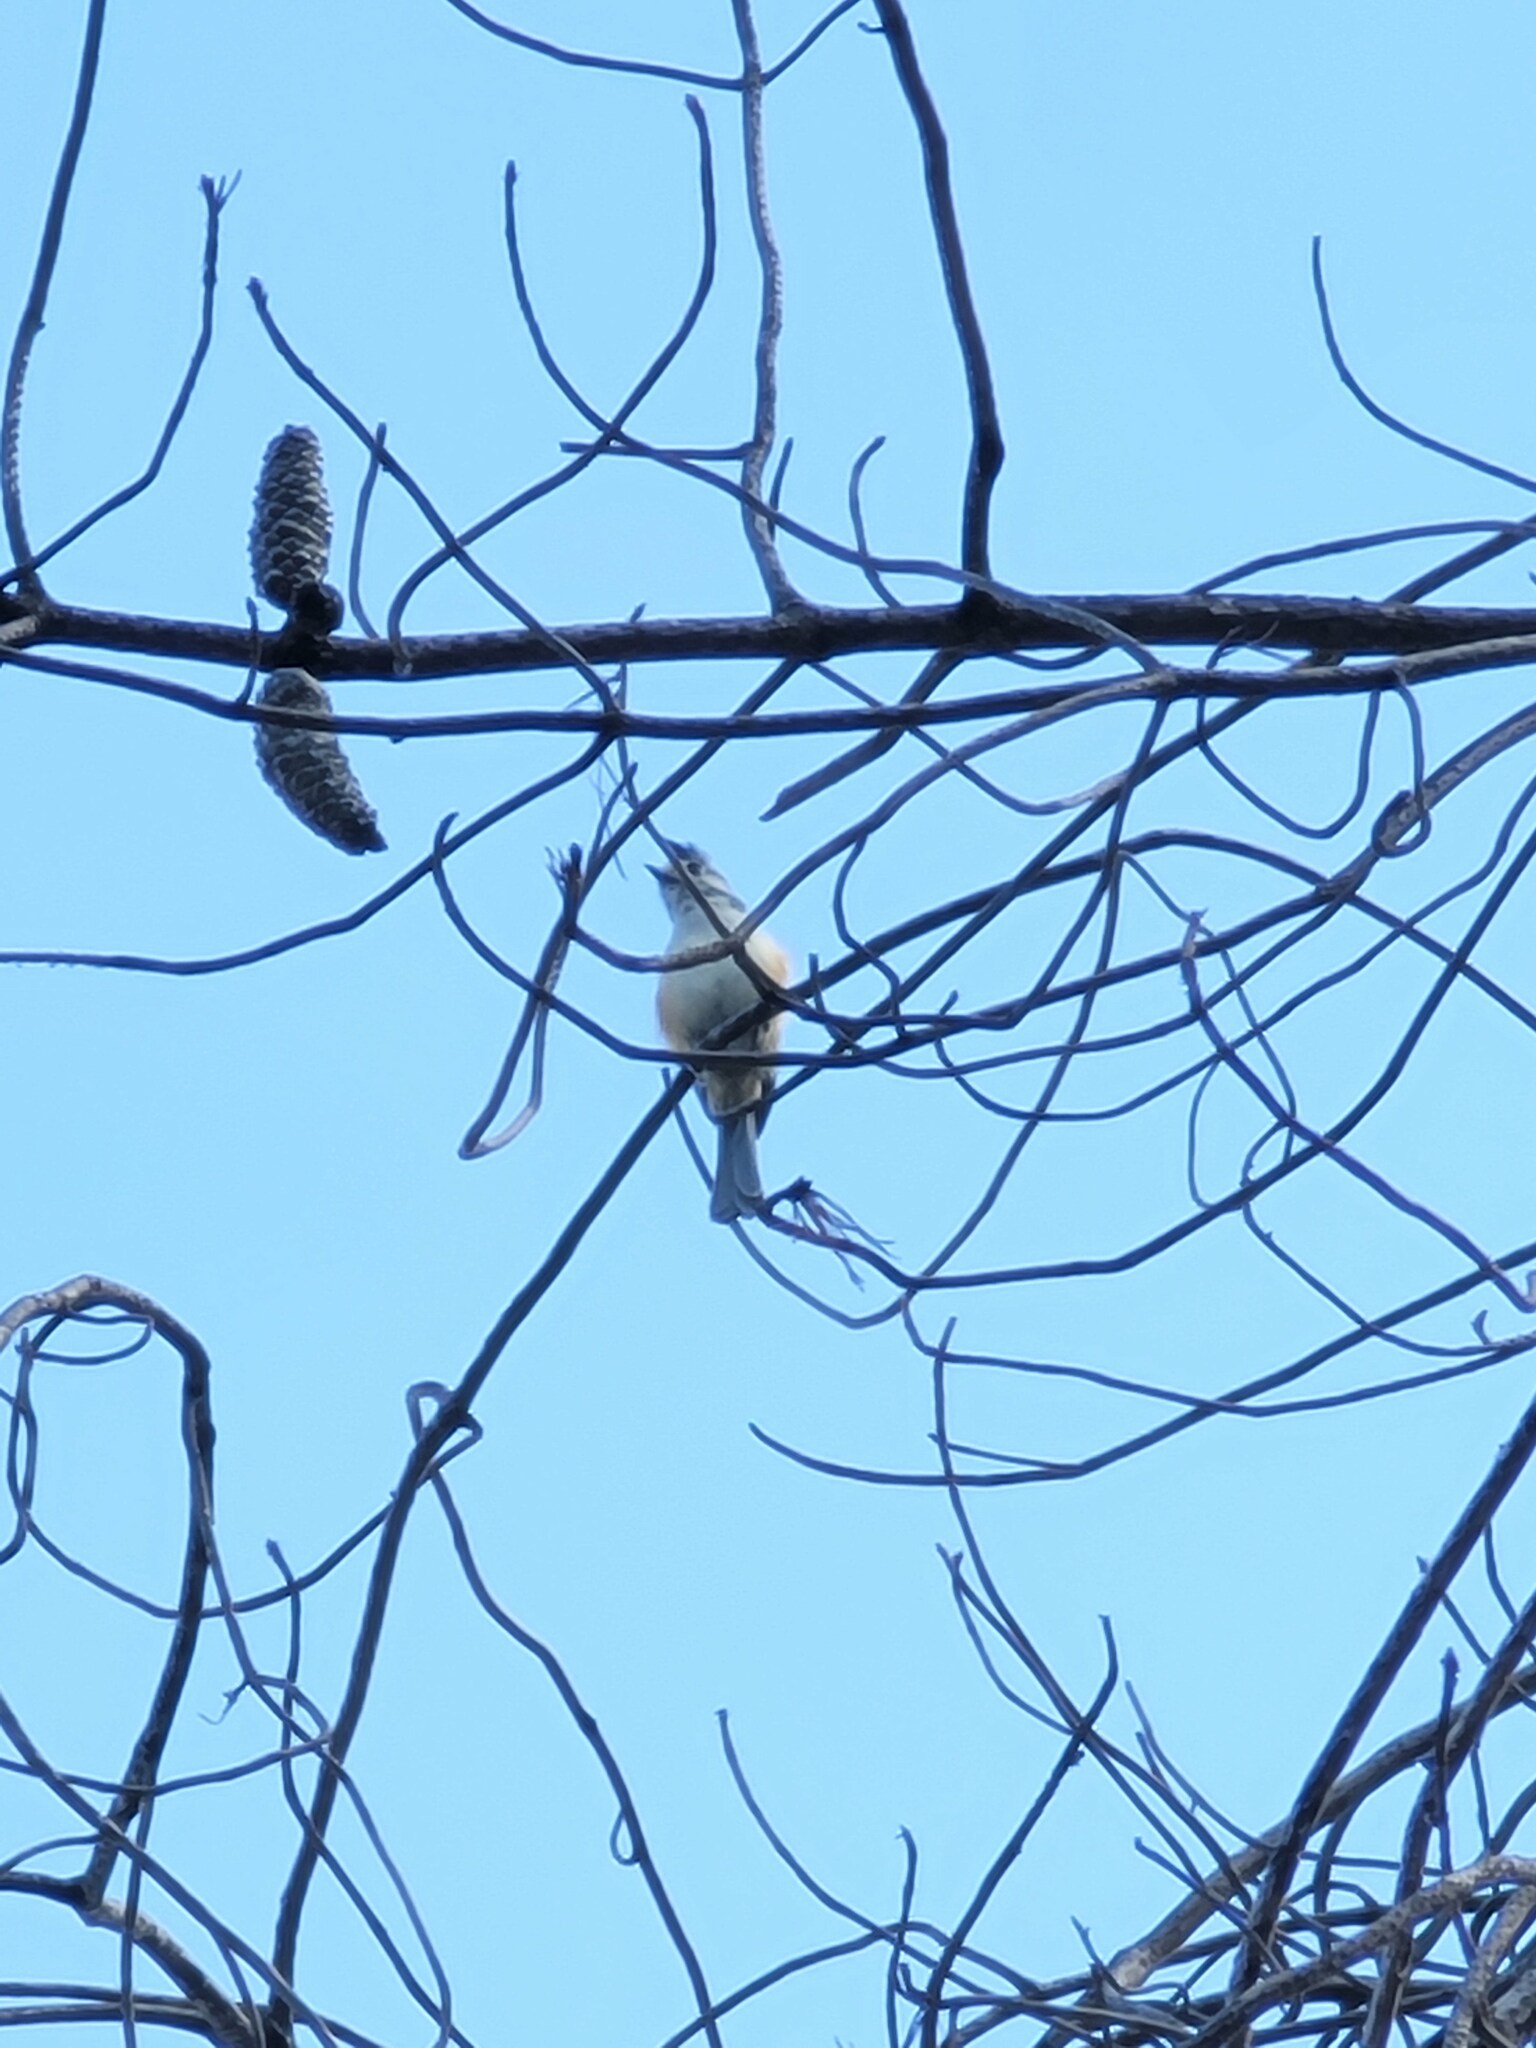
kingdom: Animalia
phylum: Chordata
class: Aves
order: Passeriformes
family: Paridae
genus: Baeolophus
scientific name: Baeolophus atricristatus
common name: Black-crested titmouse
